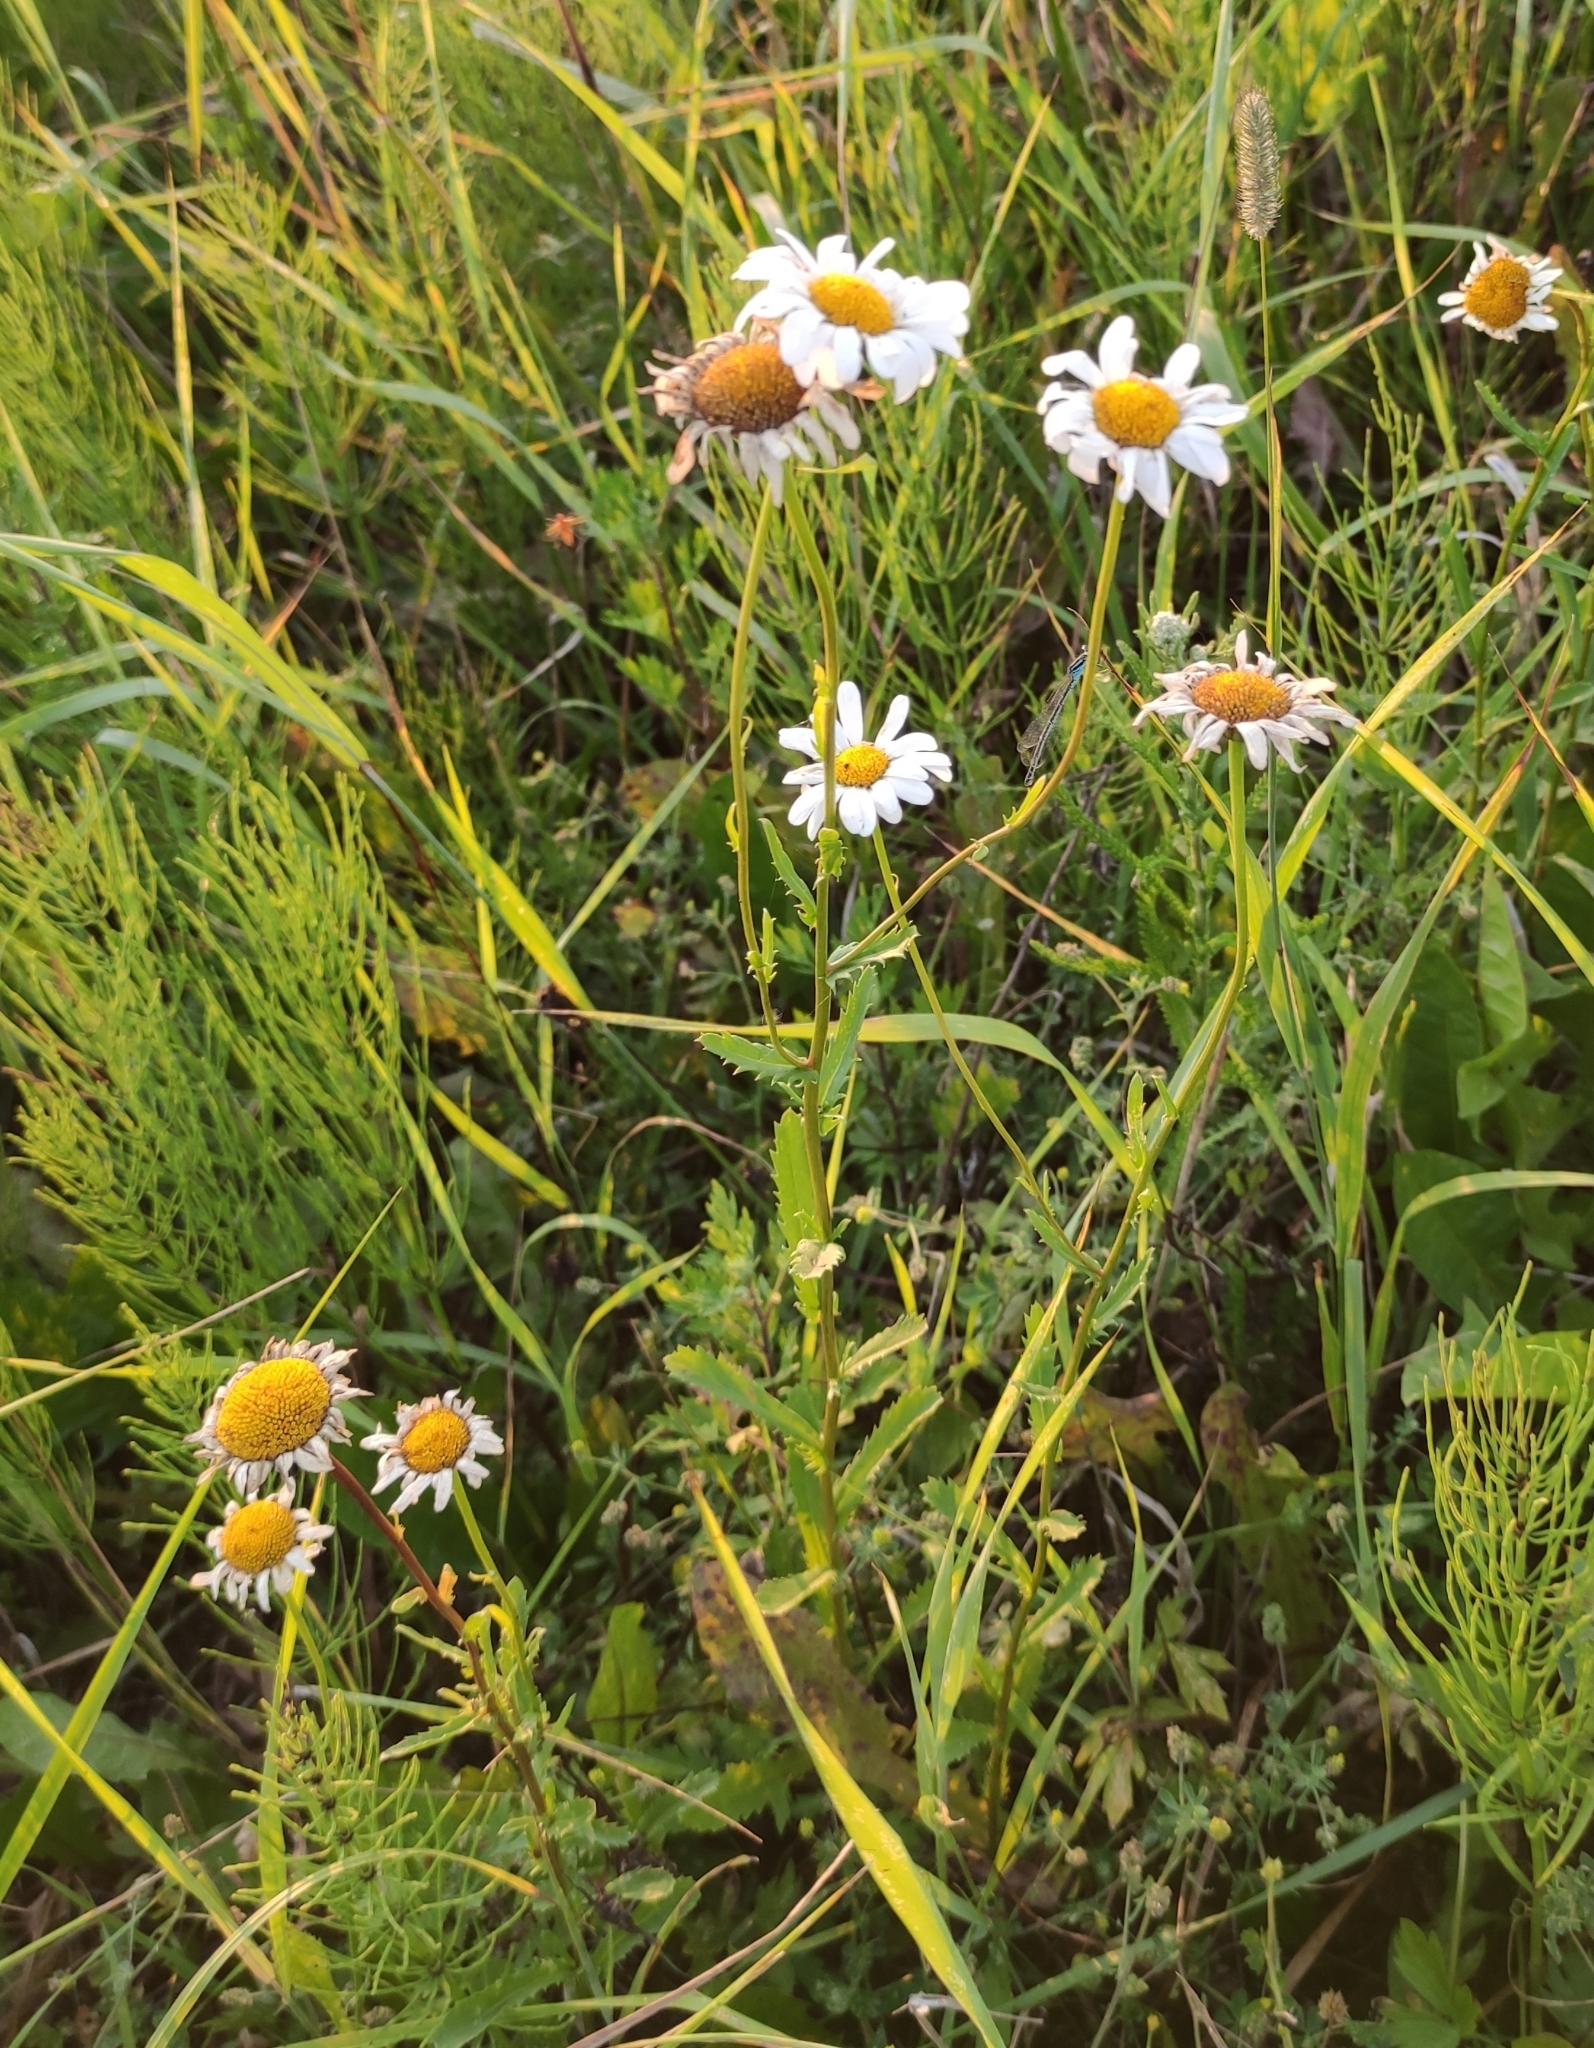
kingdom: Plantae
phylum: Tracheophyta
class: Magnoliopsida
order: Asterales
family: Asteraceae
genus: Leucanthemum
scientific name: Leucanthemum vulgare
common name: Oxeye daisy
